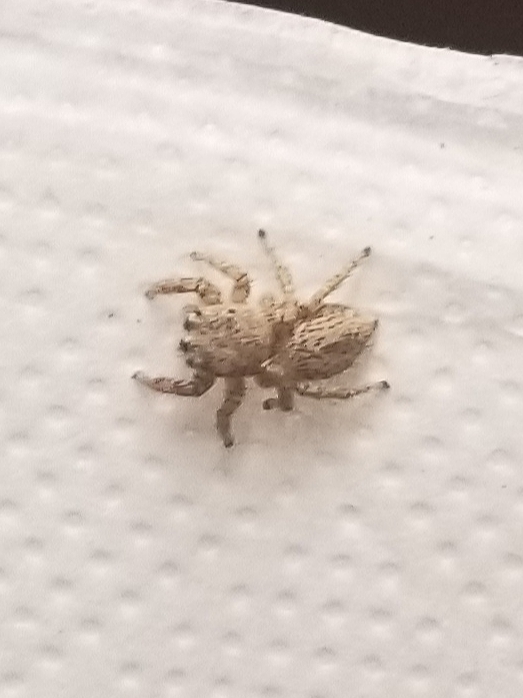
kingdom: Animalia
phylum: Arthropoda
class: Arachnida
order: Araneae
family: Salticidae
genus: Habronattus
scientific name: Habronattus signatus
